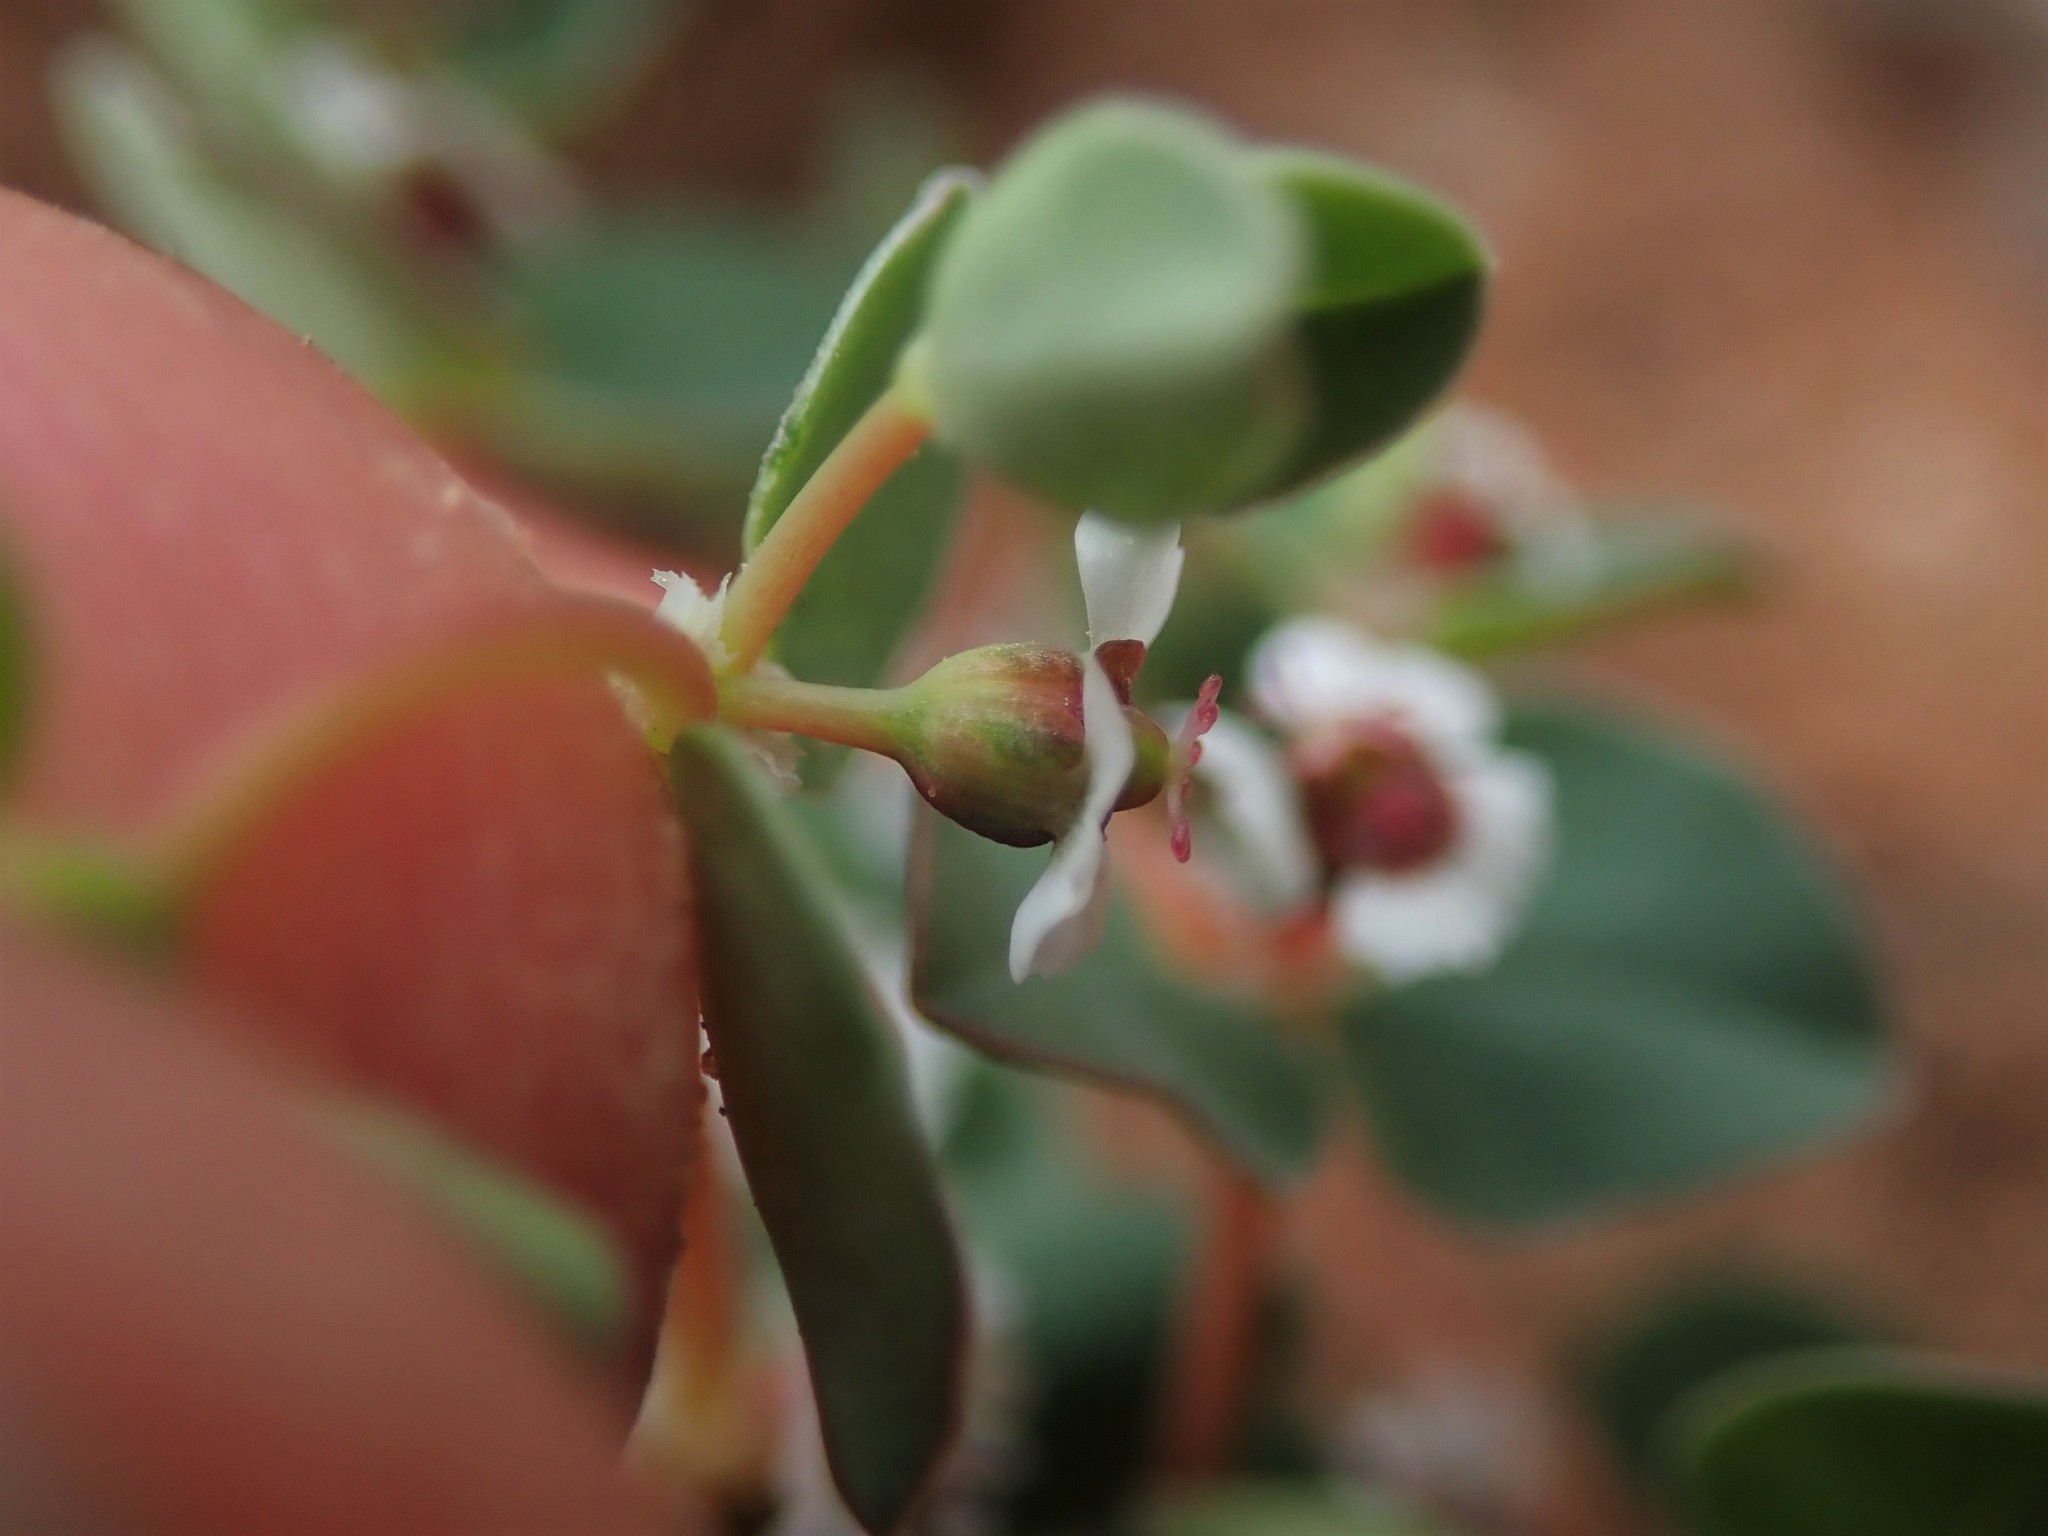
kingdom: Plantae
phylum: Tracheophyta
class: Magnoliopsida
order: Malpighiales
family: Euphorbiaceae
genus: Euphorbia
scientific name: Euphorbia albomarginata
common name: Whitemargin sandmat
